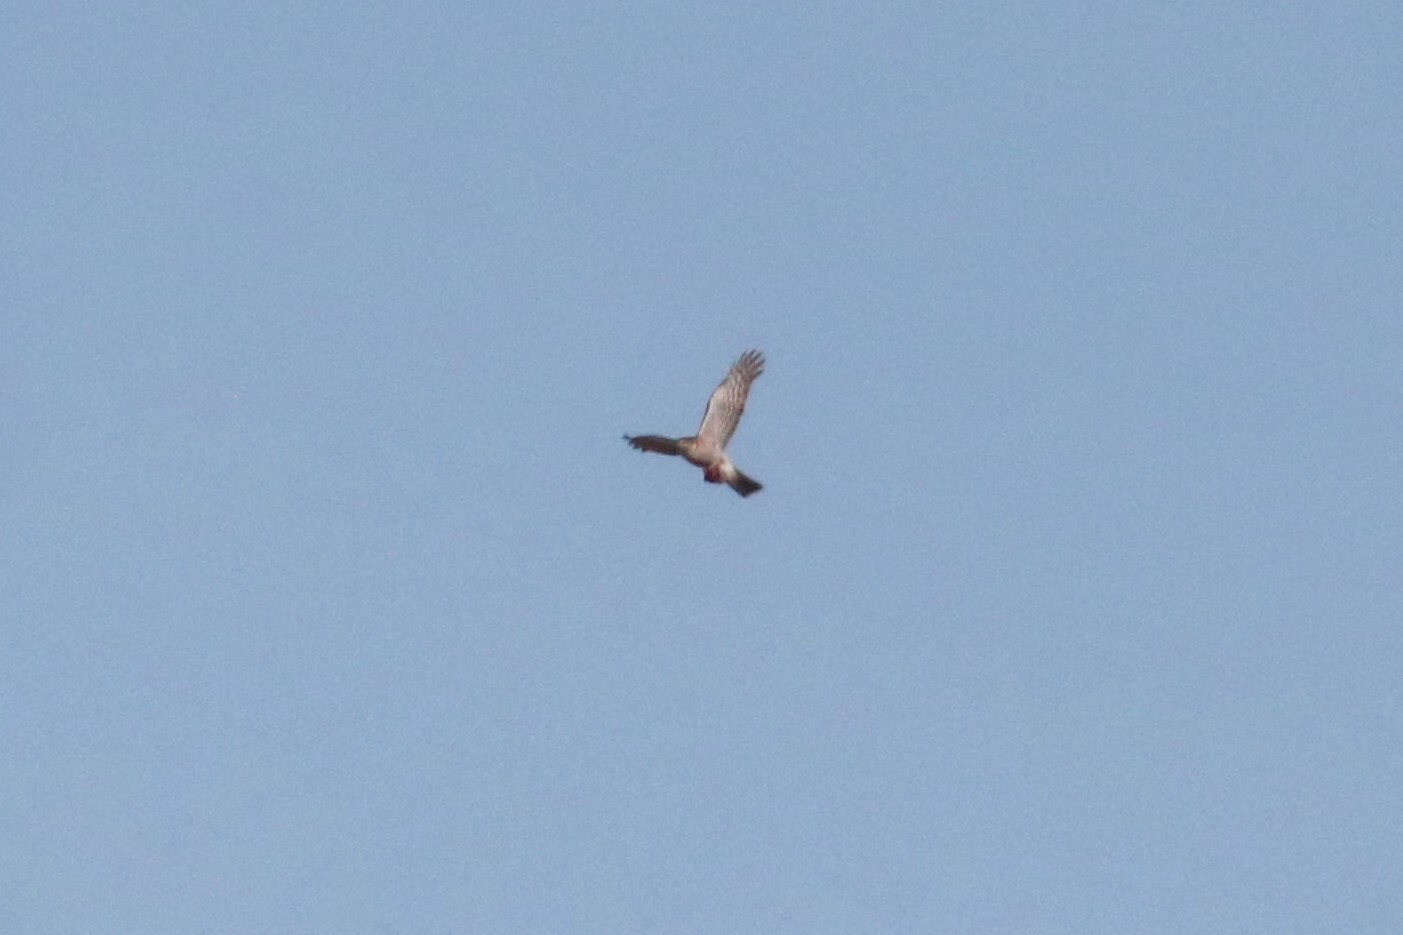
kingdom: Animalia
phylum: Chordata
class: Aves
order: Accipitriformes
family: Accipitridae
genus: Accipiter
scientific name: Accipiter nisus
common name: Eurasian sparrowhawk
